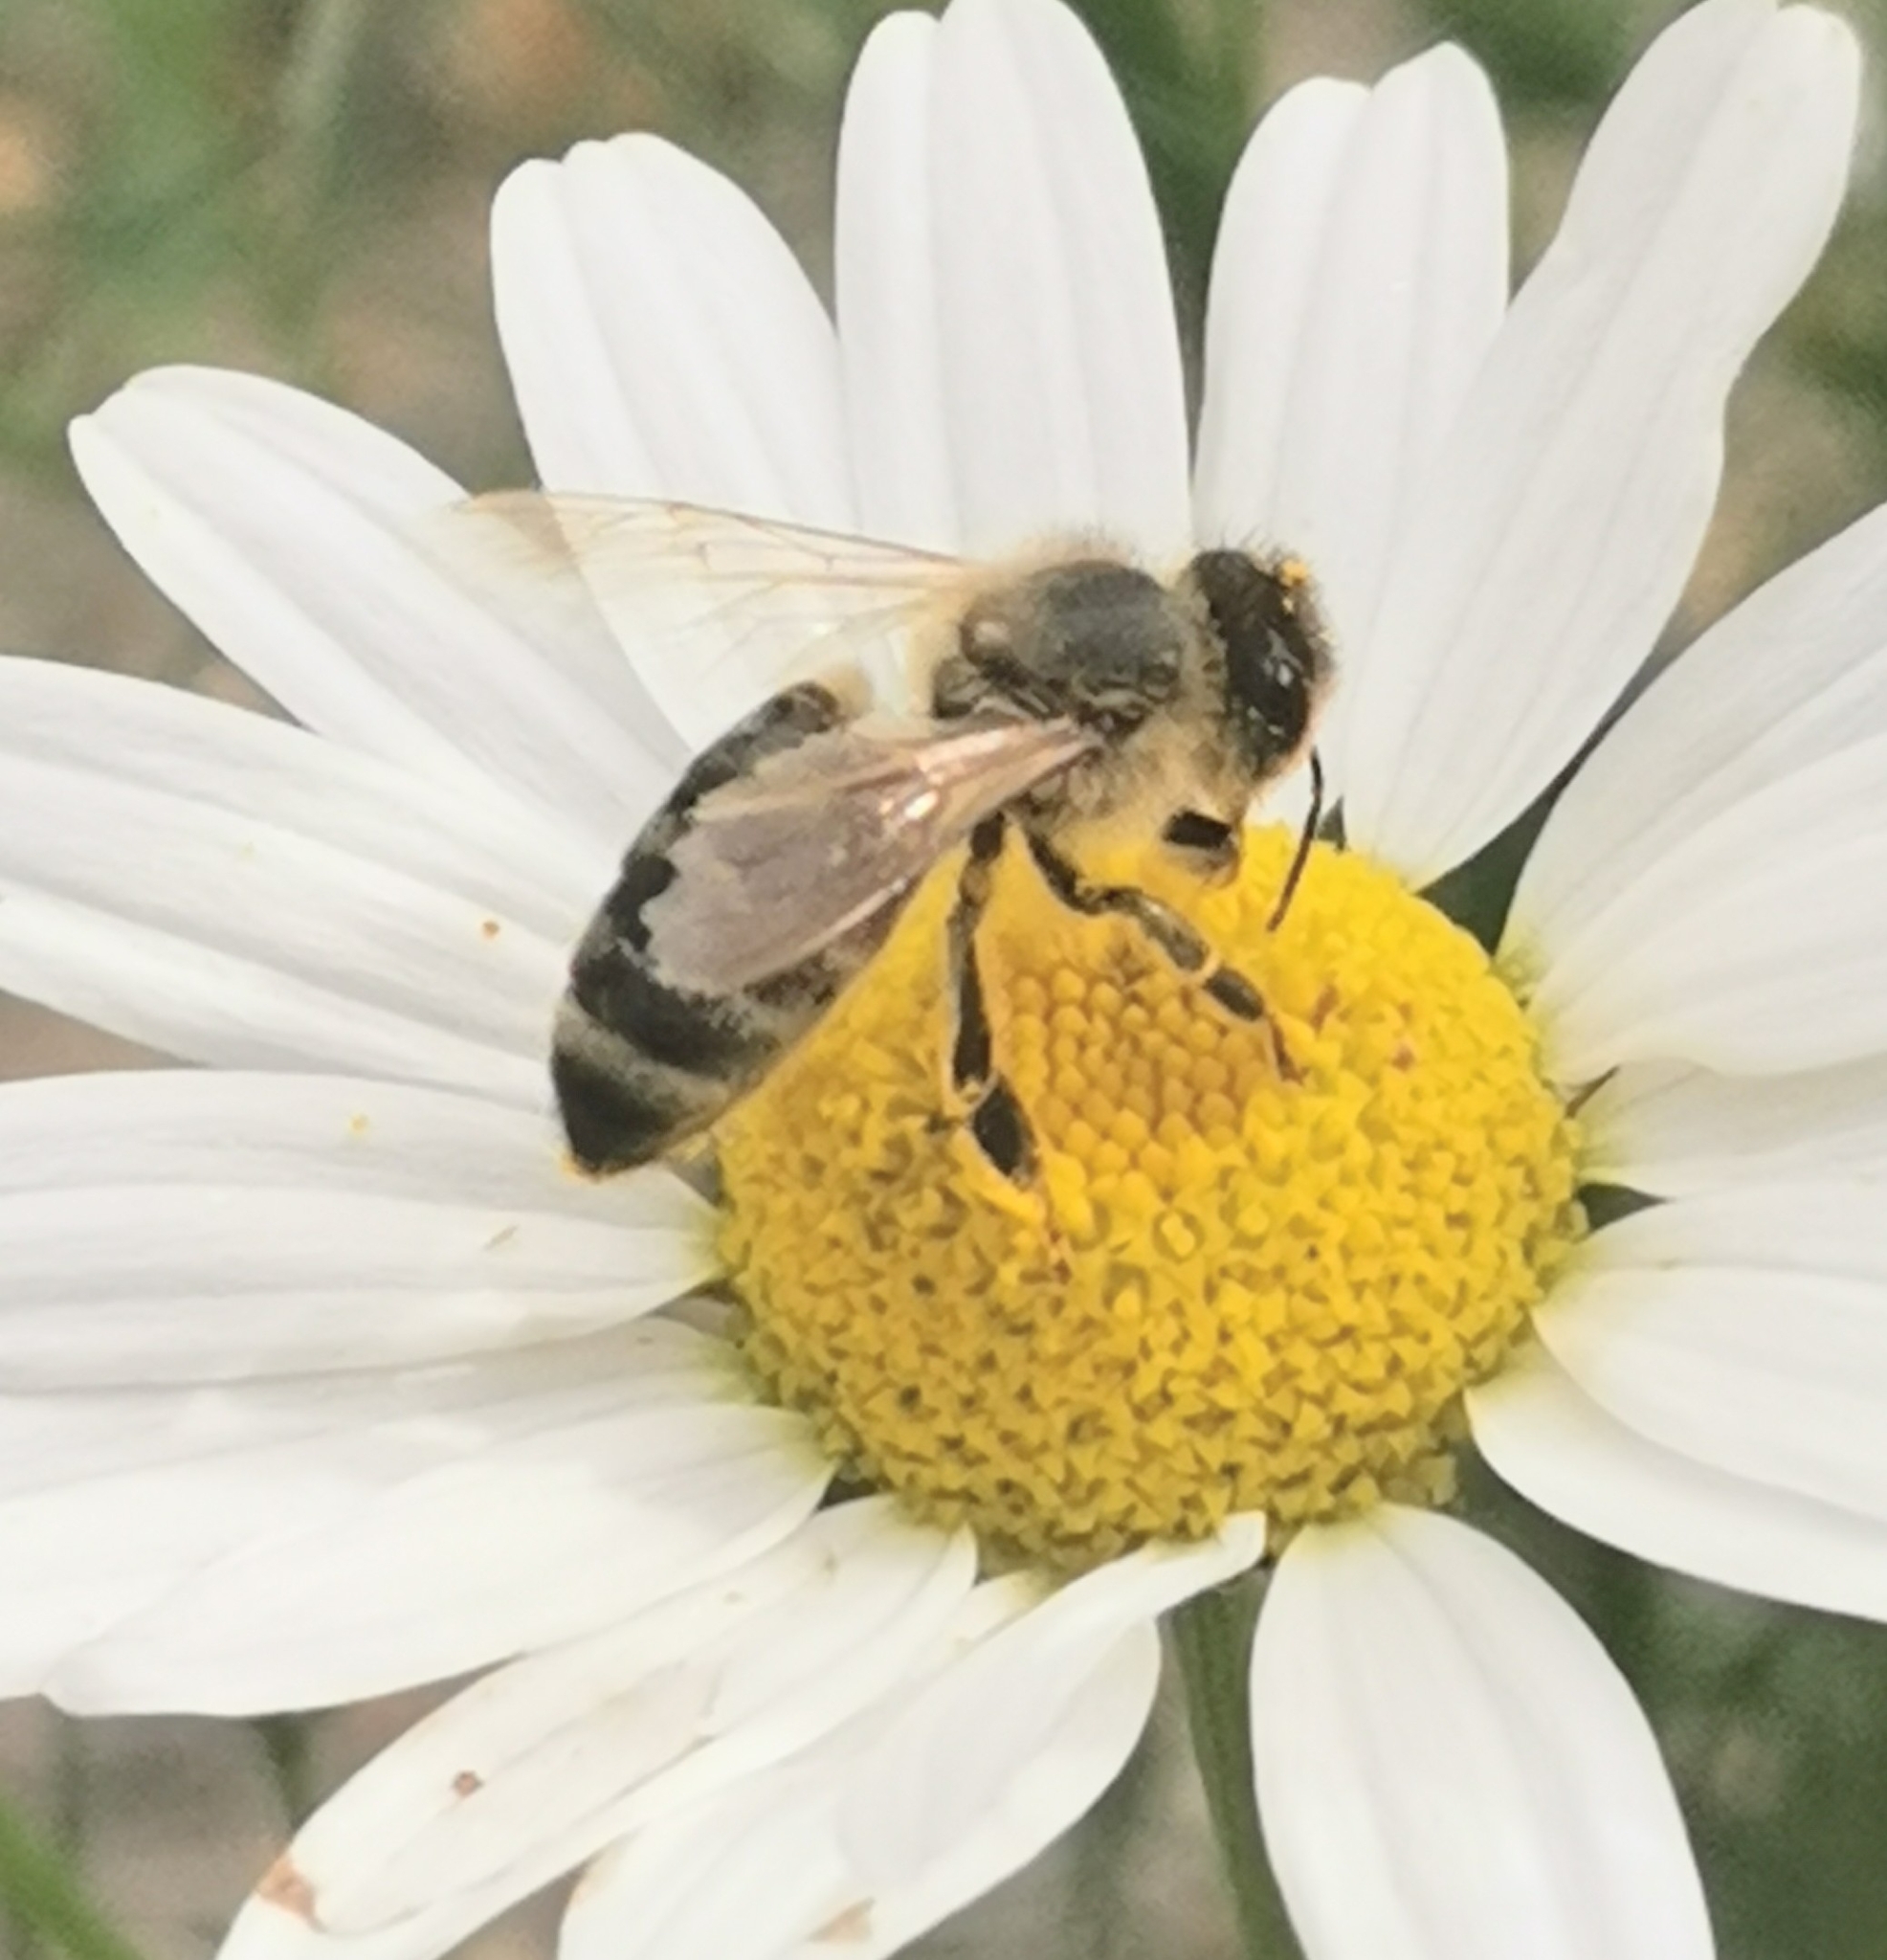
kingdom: Animalia
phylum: Arthropoda
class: Insecta
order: Hymenoptera
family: Apidae
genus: Apis
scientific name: Apis mellifera
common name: Honey bee
